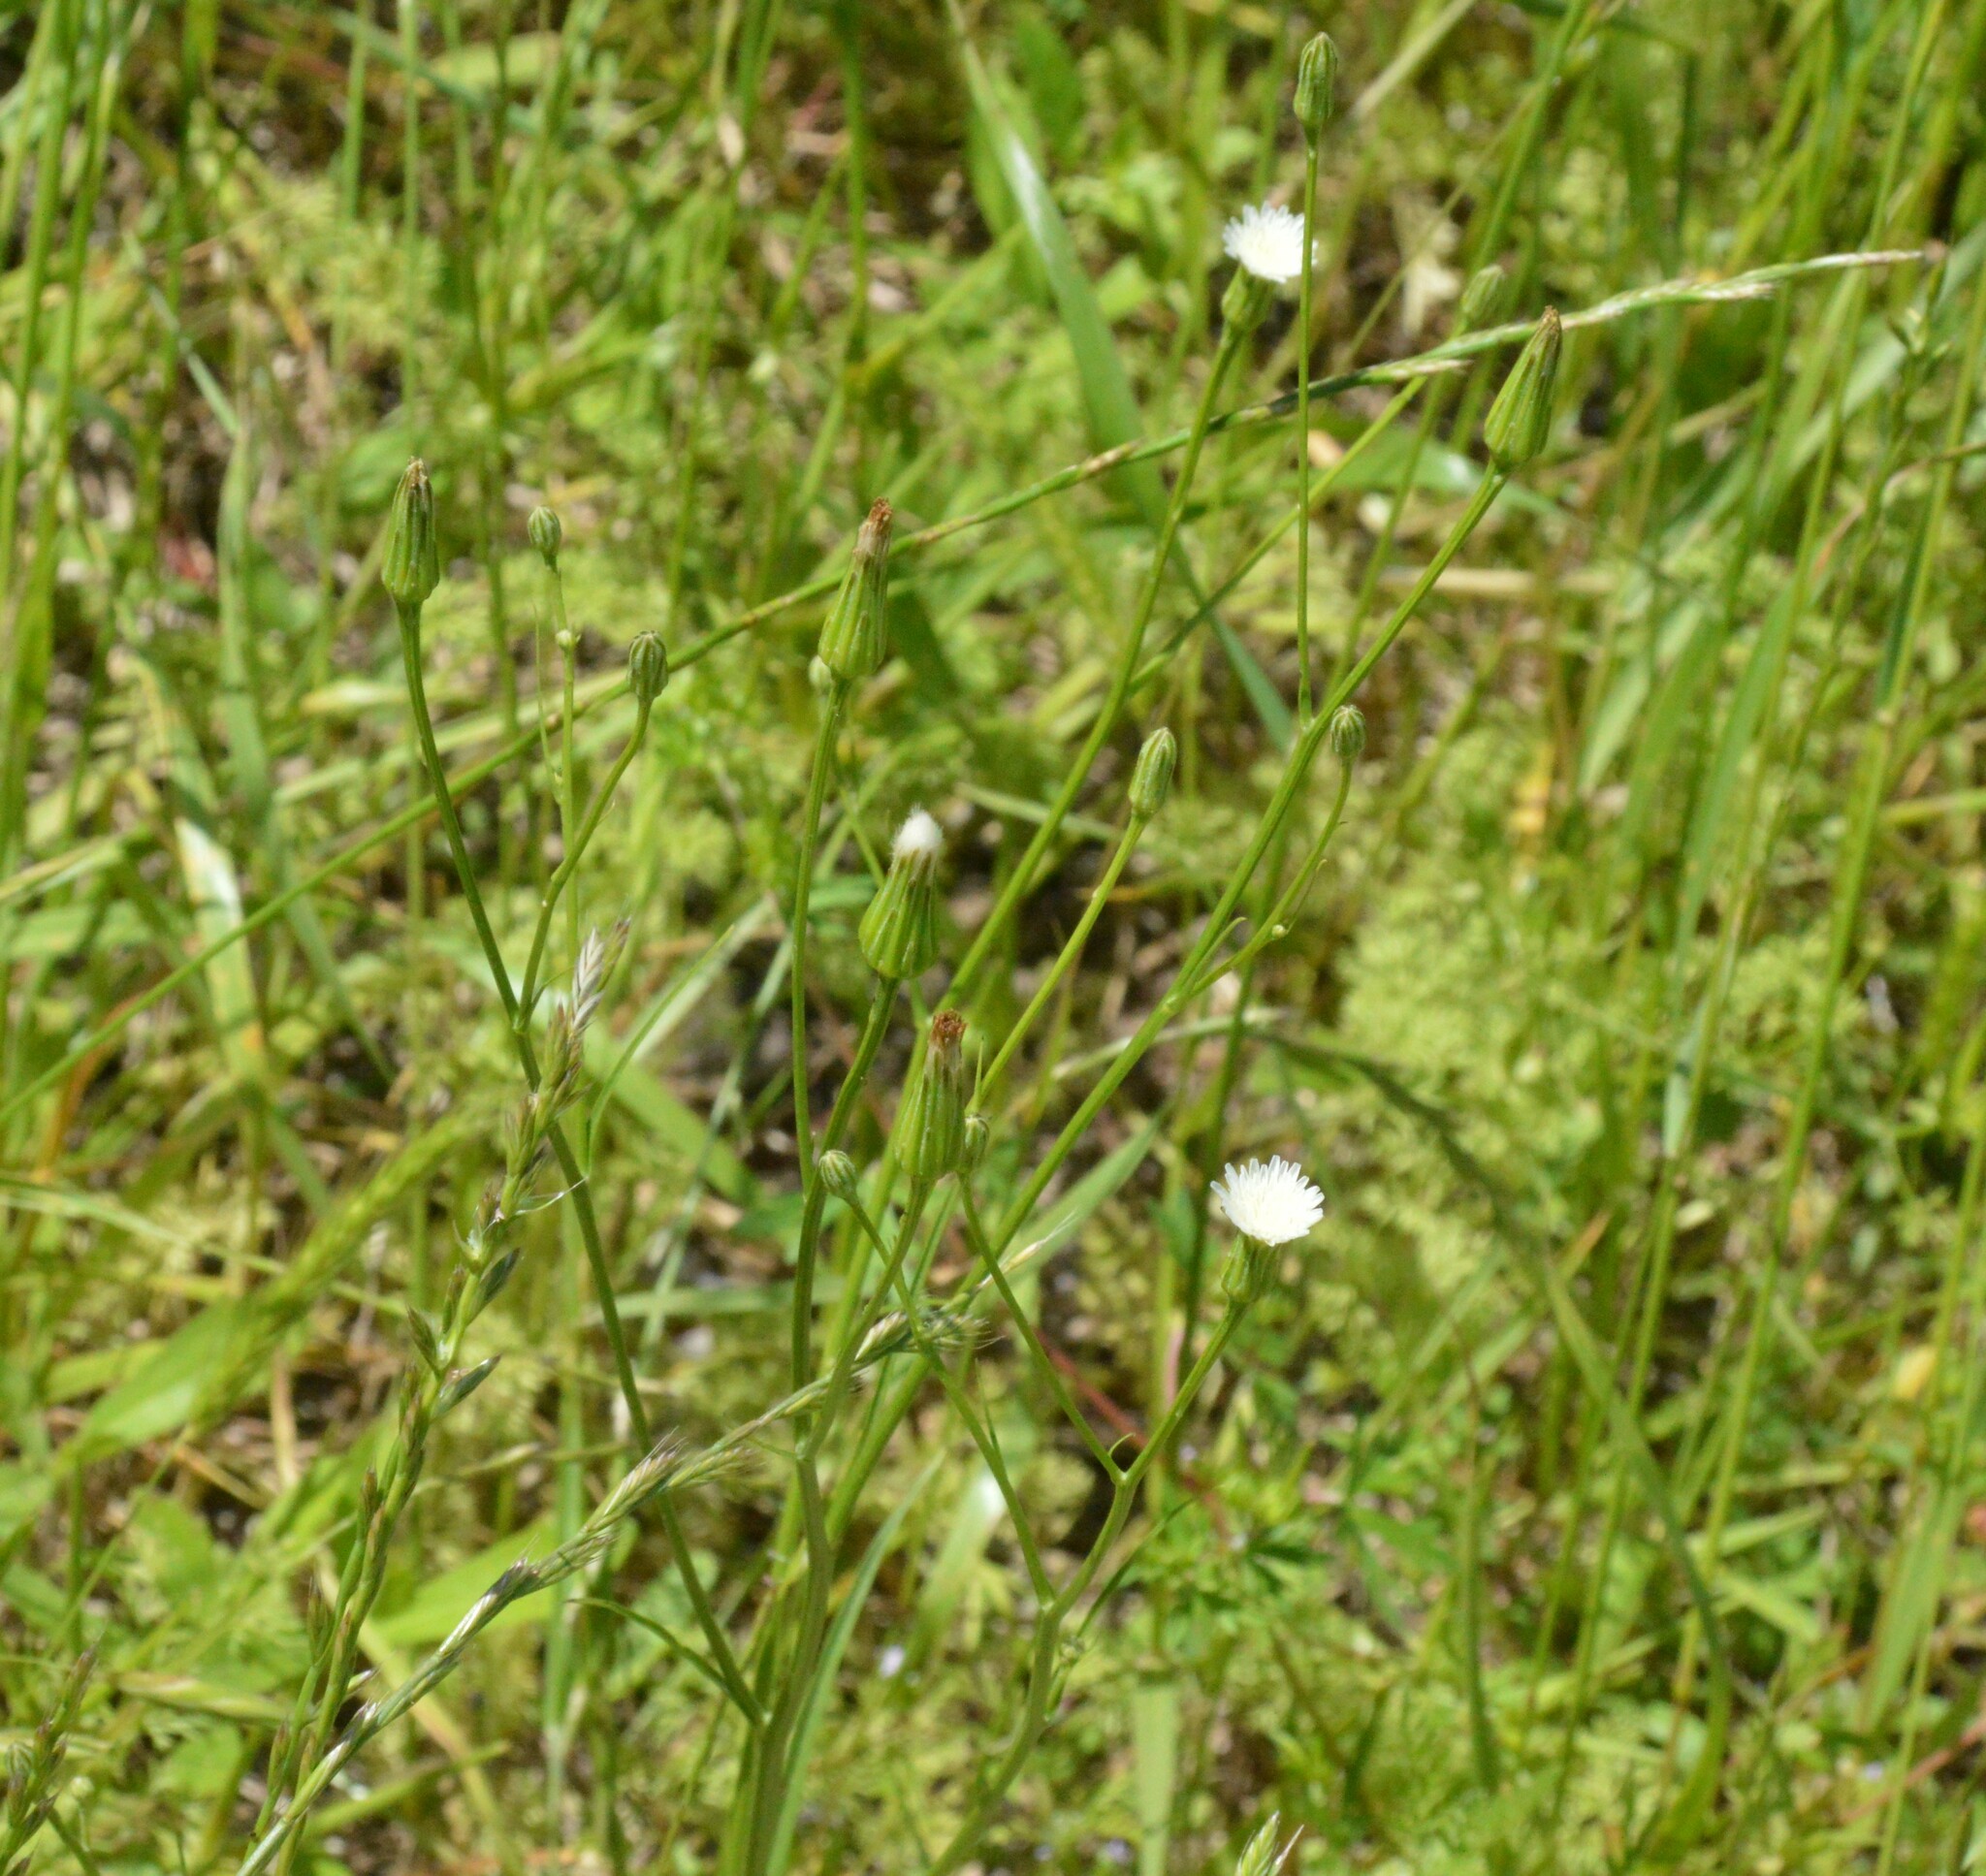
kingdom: Plantae
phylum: Tracheophyta
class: Magnoliopsida
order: Asterales
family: Asteraceae
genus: Hypochaeris
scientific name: Hypochaeris albiflora
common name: White flatweed
